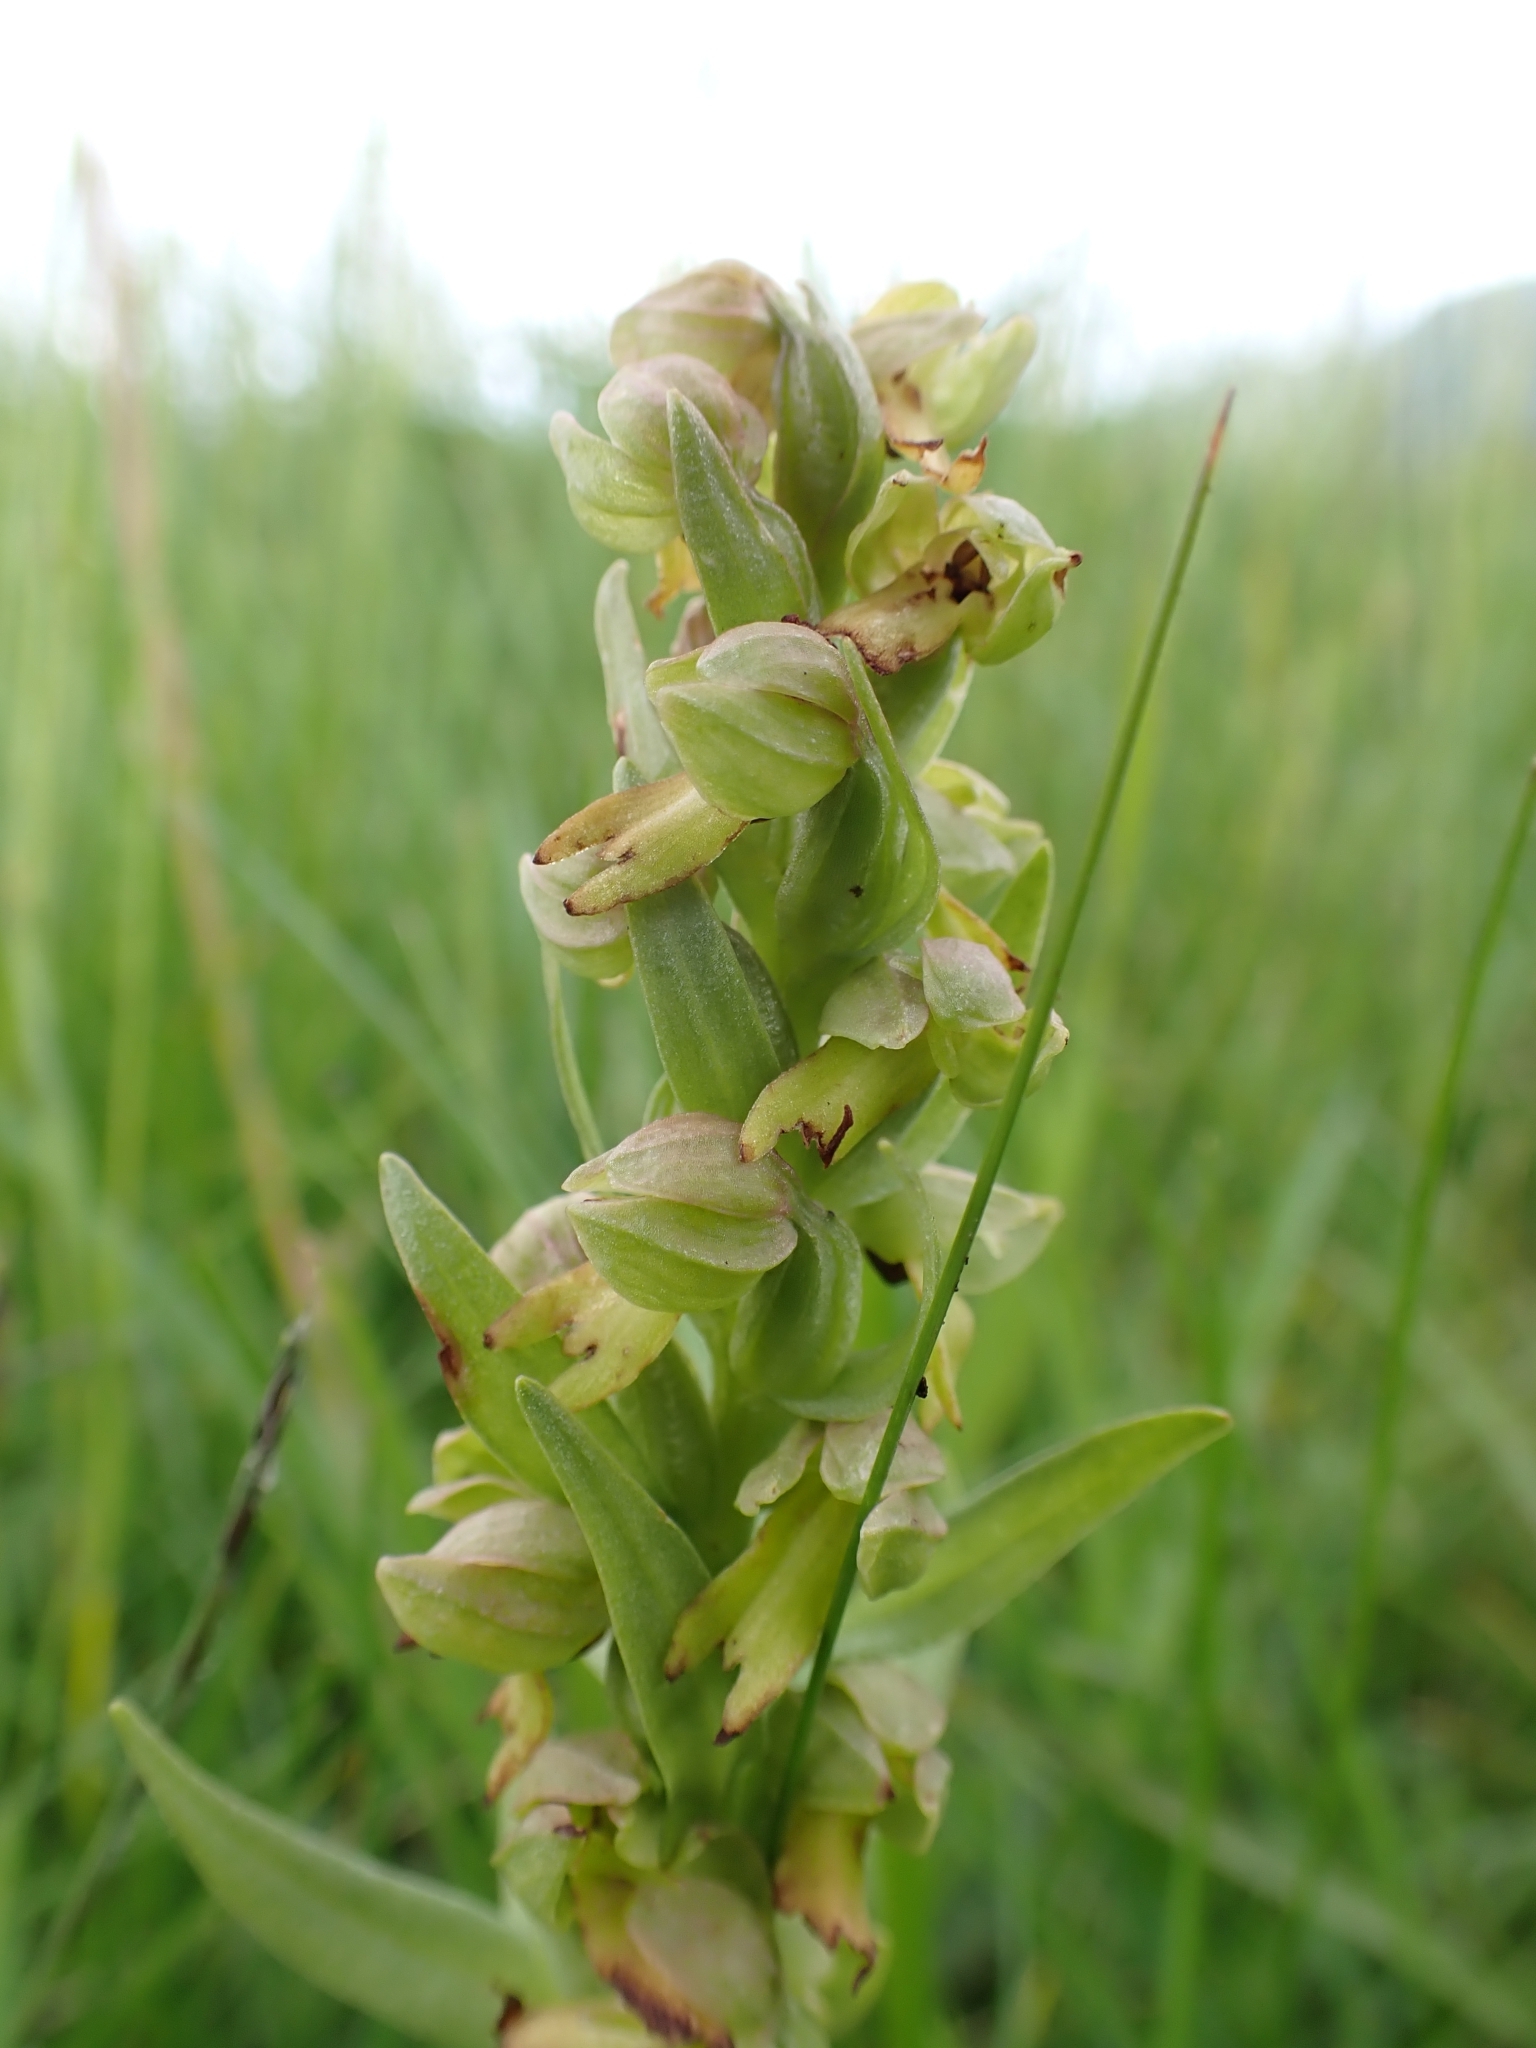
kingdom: Plantae
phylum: Tracheophyta
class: Liliopsida
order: Asparagales
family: Orchidaceae
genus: Dactylorhiza
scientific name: Dactylorhiza viridis
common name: Longbract frog orchid
